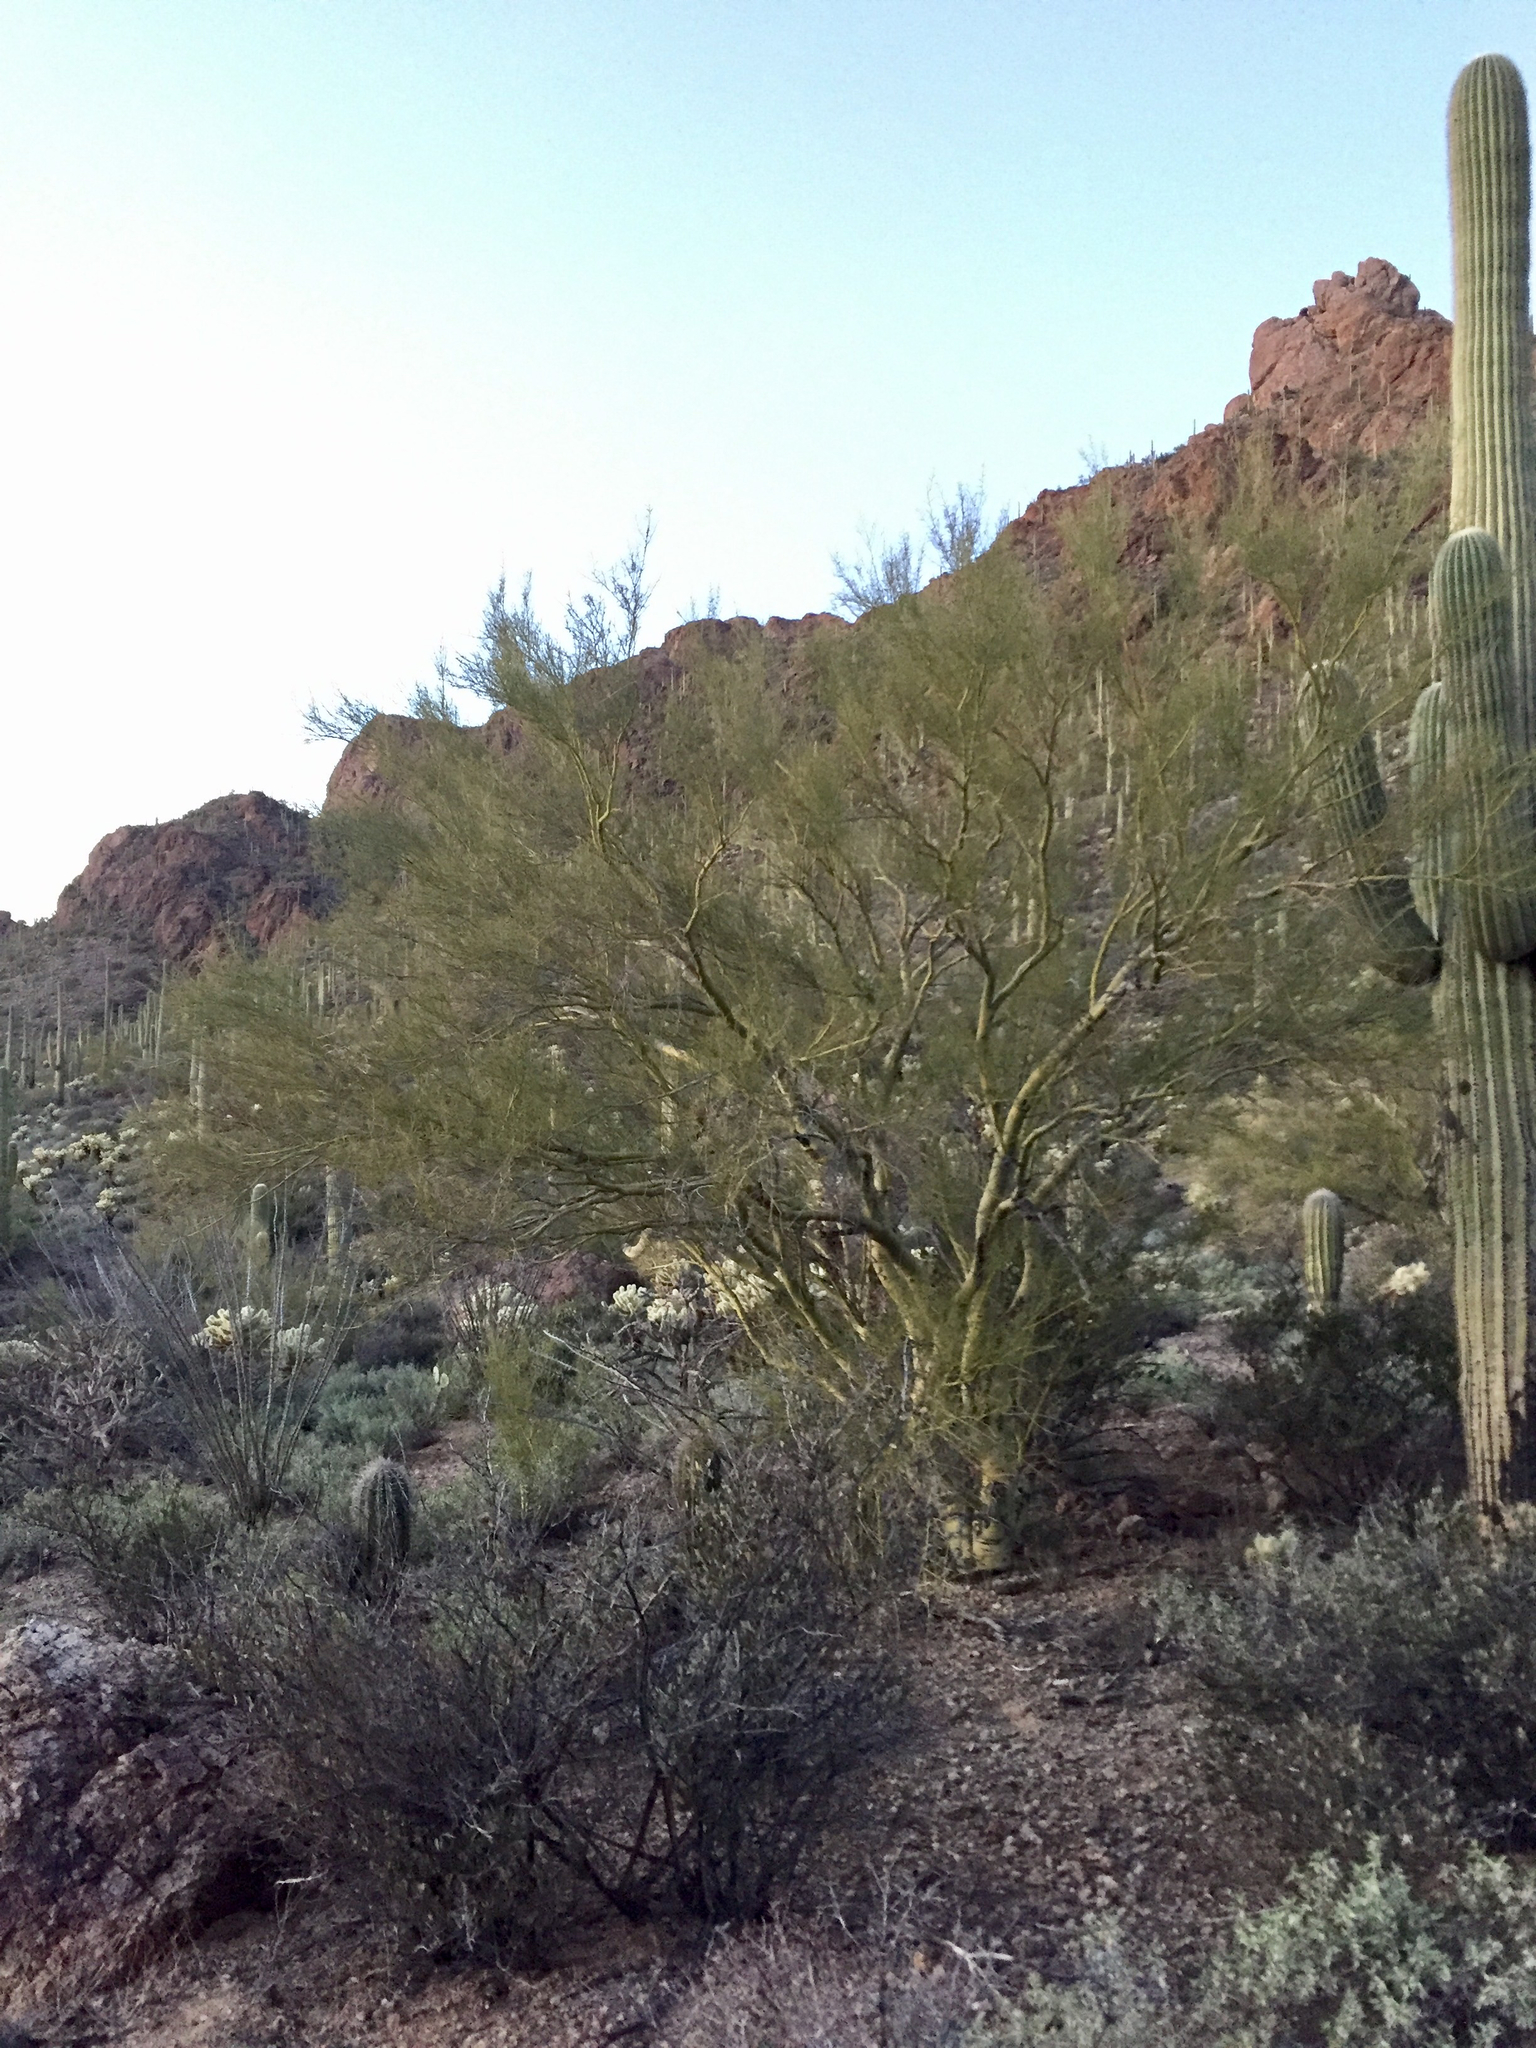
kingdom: Plantae
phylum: Tracheophyta
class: Magnoliopsida
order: Fabales
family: Fabaceae
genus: Parkinsonia
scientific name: Parkinsonia microphylla
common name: Yellow paloverde
